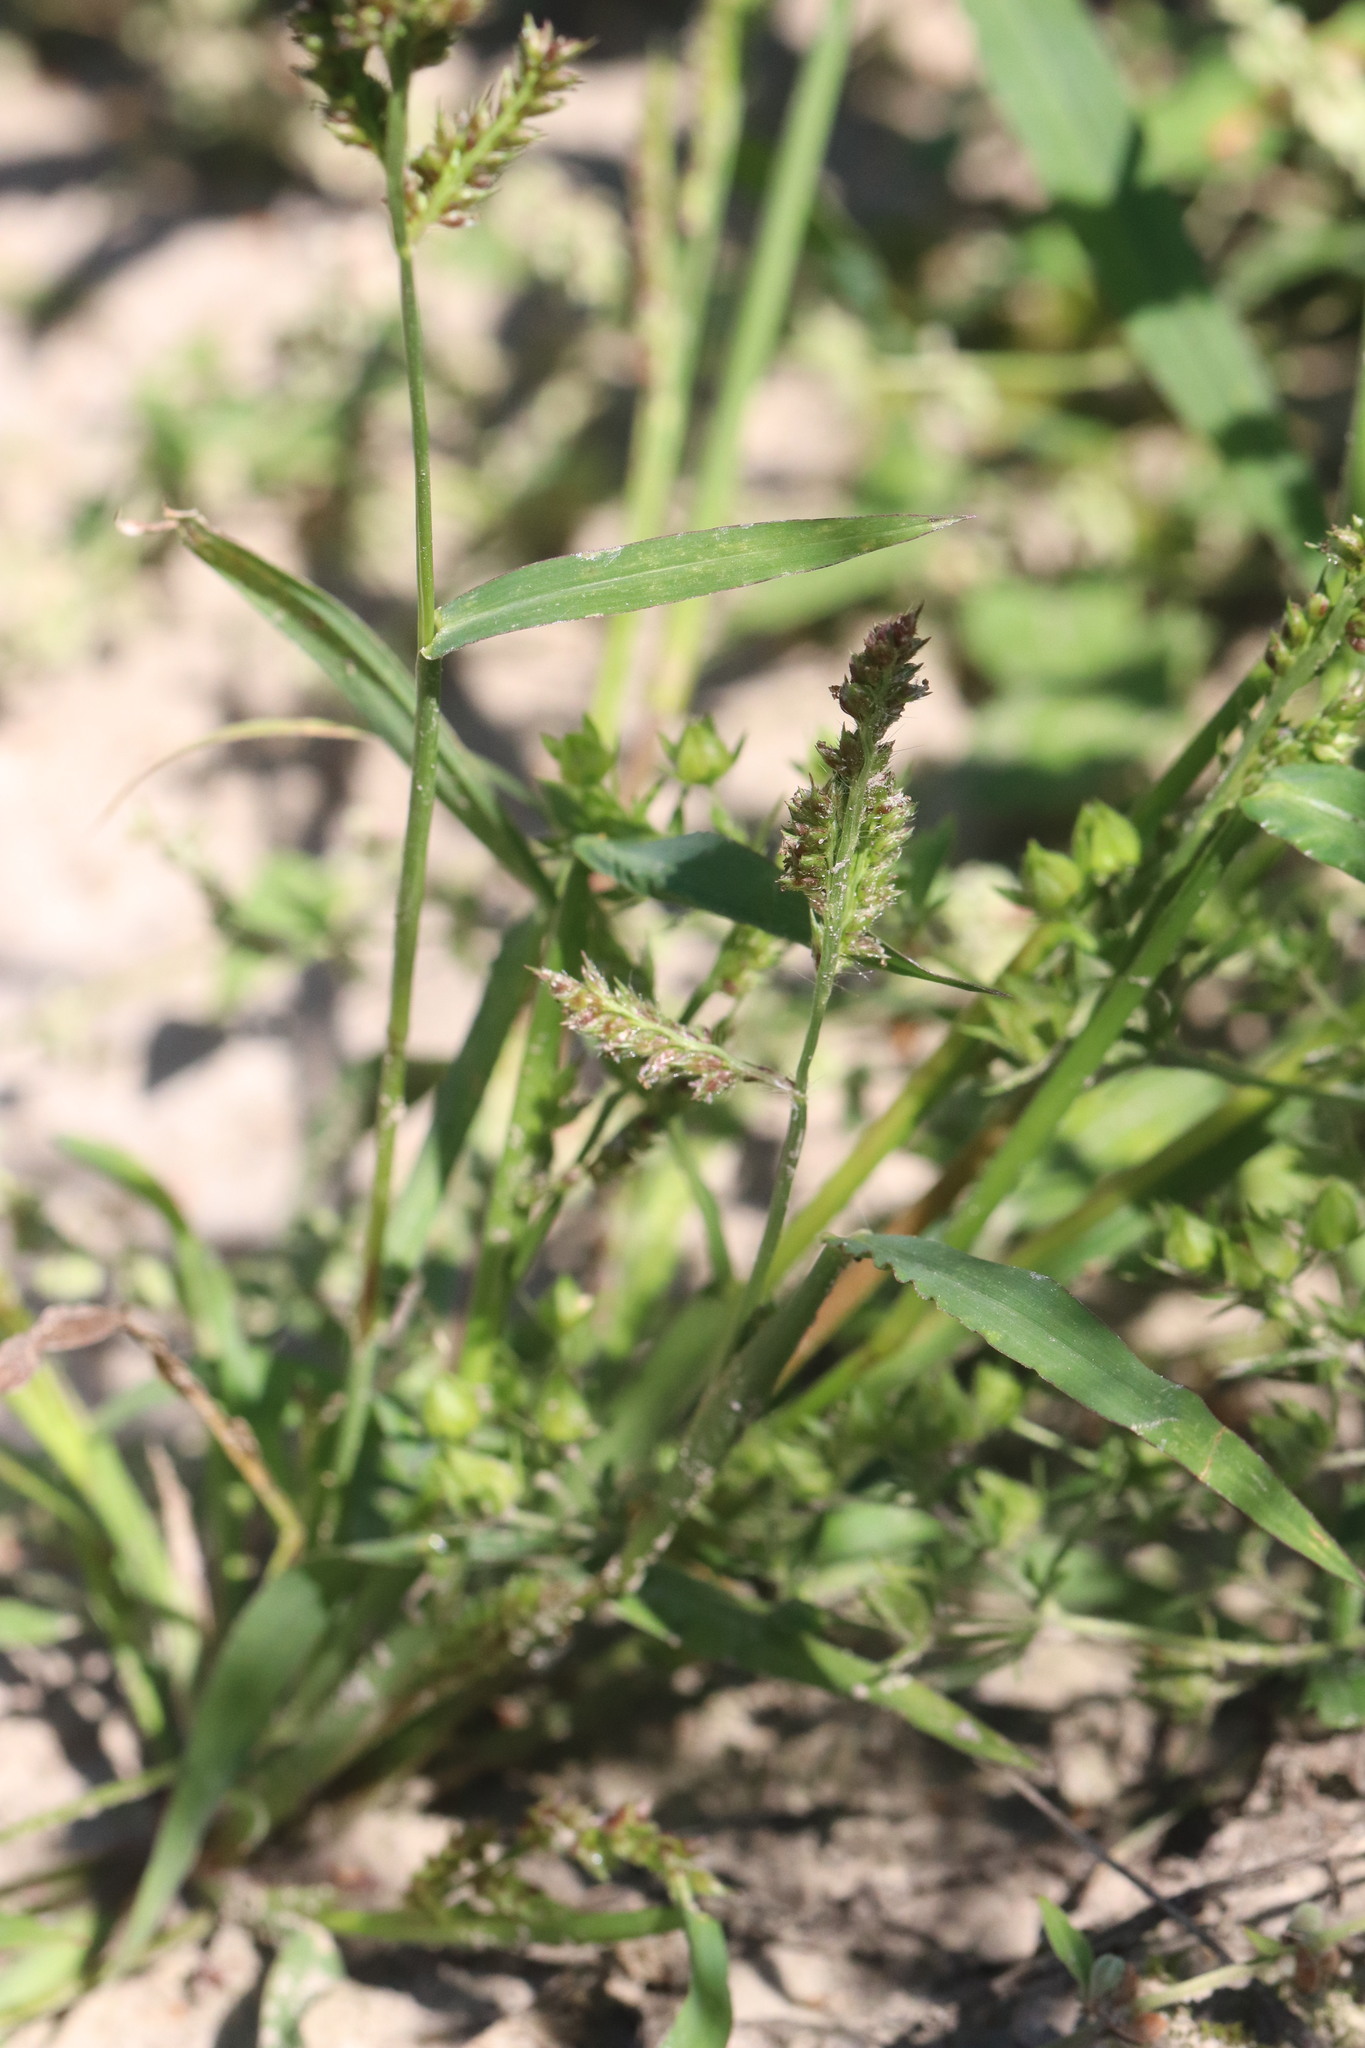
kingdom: Plantae
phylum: Tracheophyta
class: Liliopsida
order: Poales
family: Poaceae
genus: Echinochloa
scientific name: Echinochloa crus-galli
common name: Cockspur
